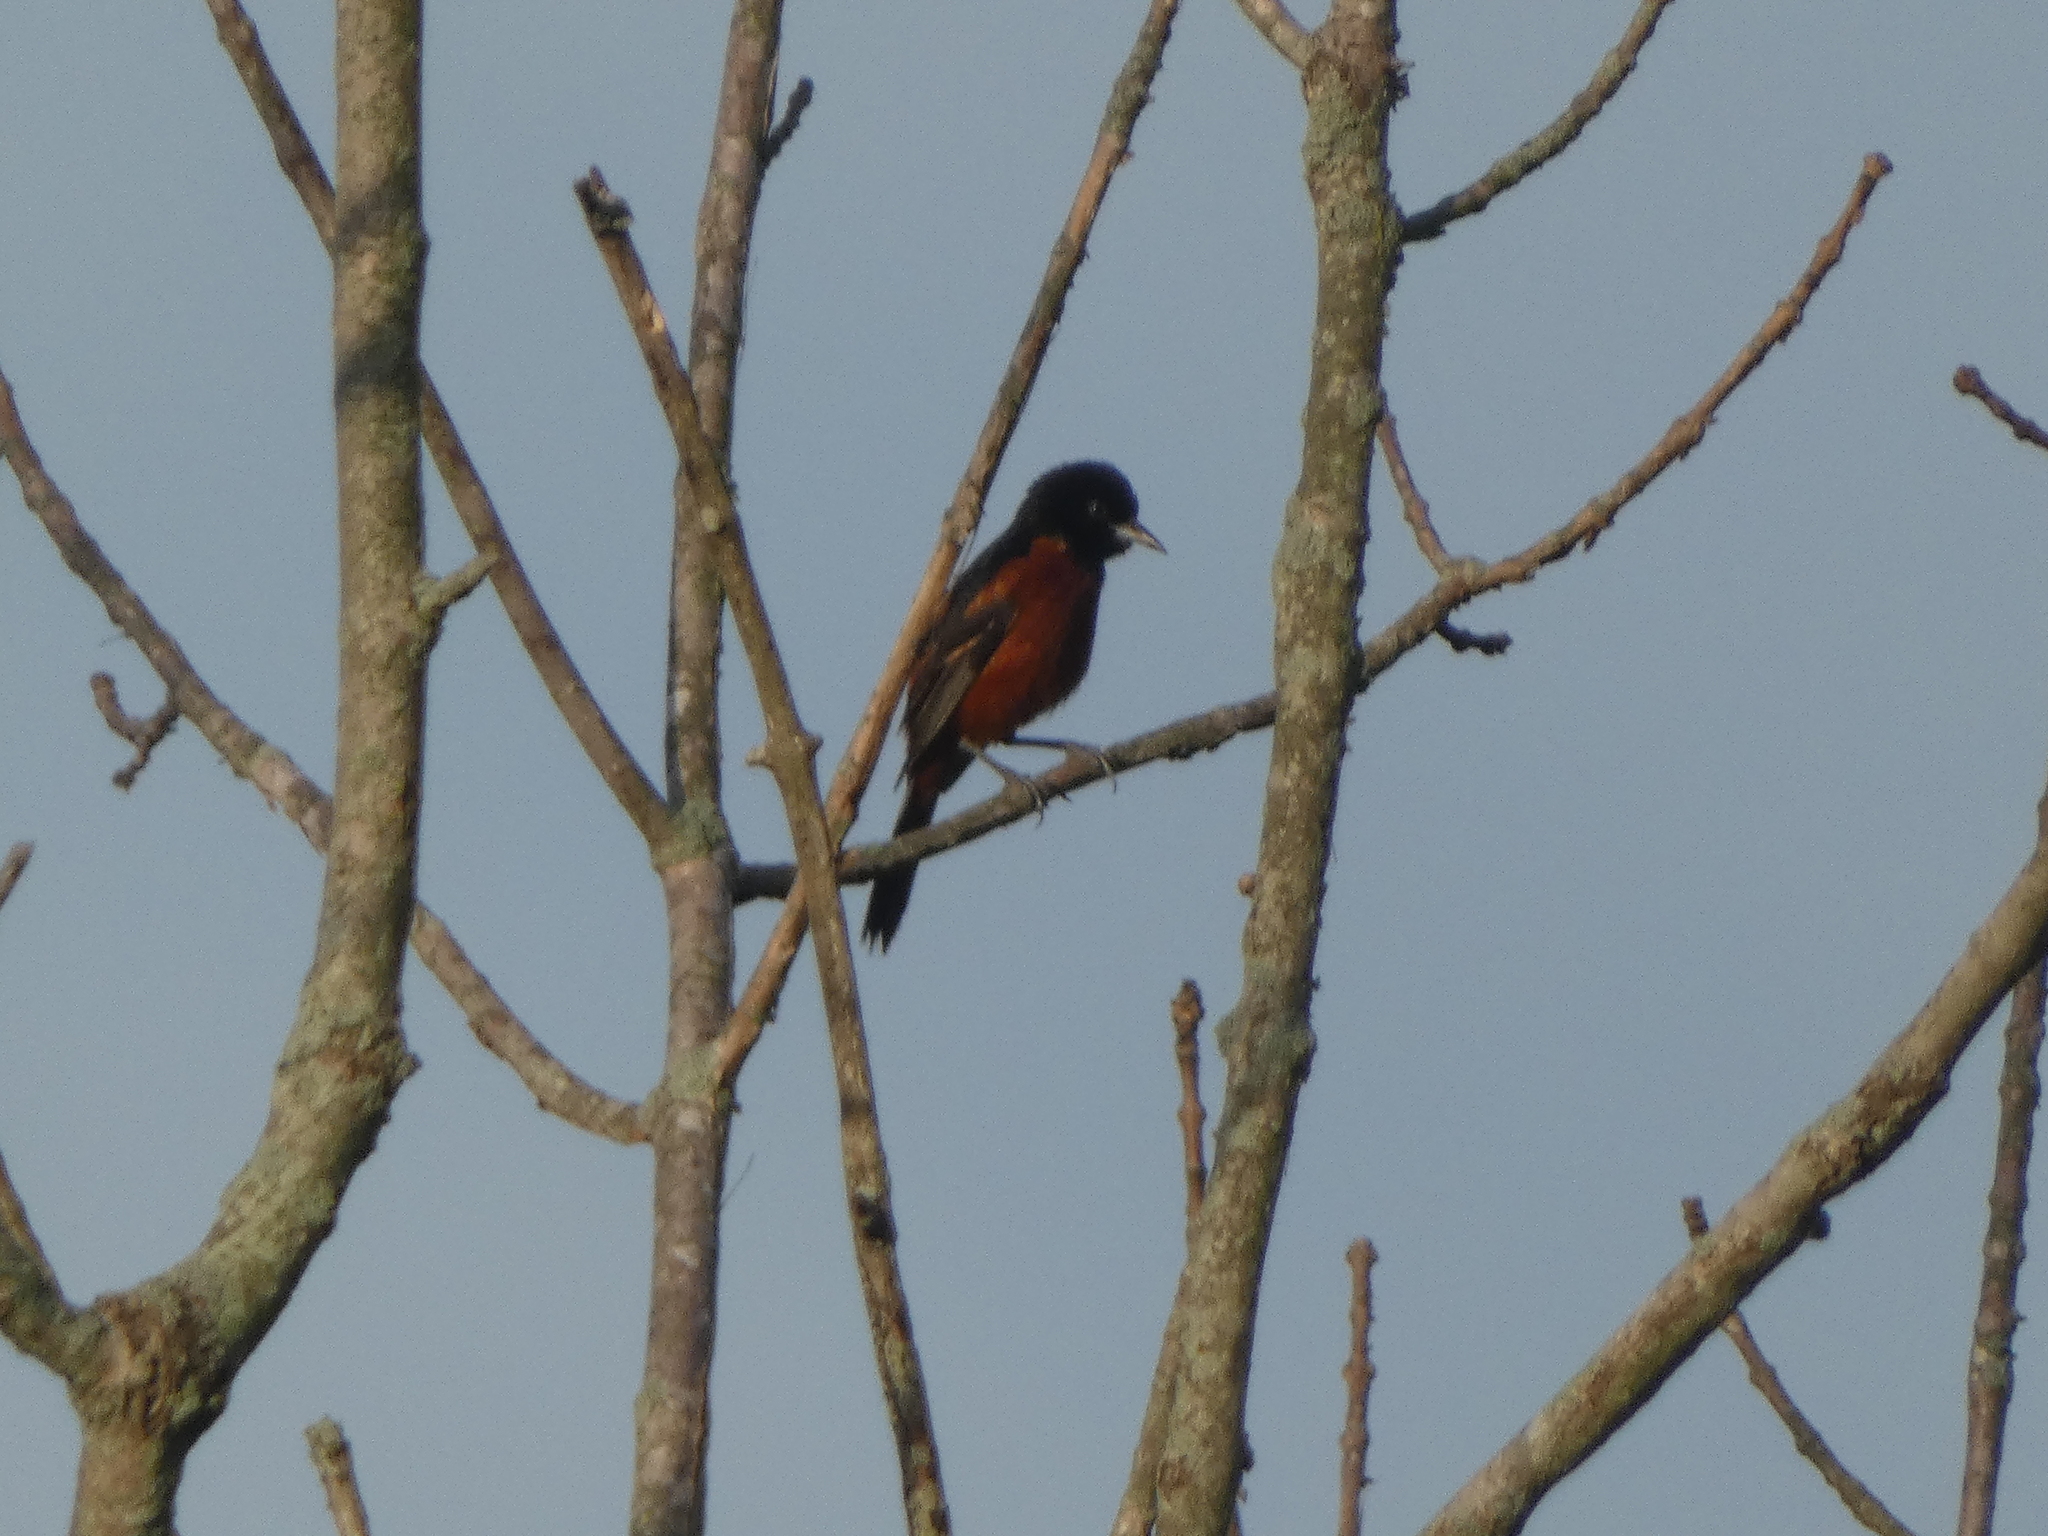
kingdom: Animalia
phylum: Chordata
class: Aves
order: Passeriformes
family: Icteridae
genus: Icterus
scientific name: Icterus spurius
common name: Orchard oriole
